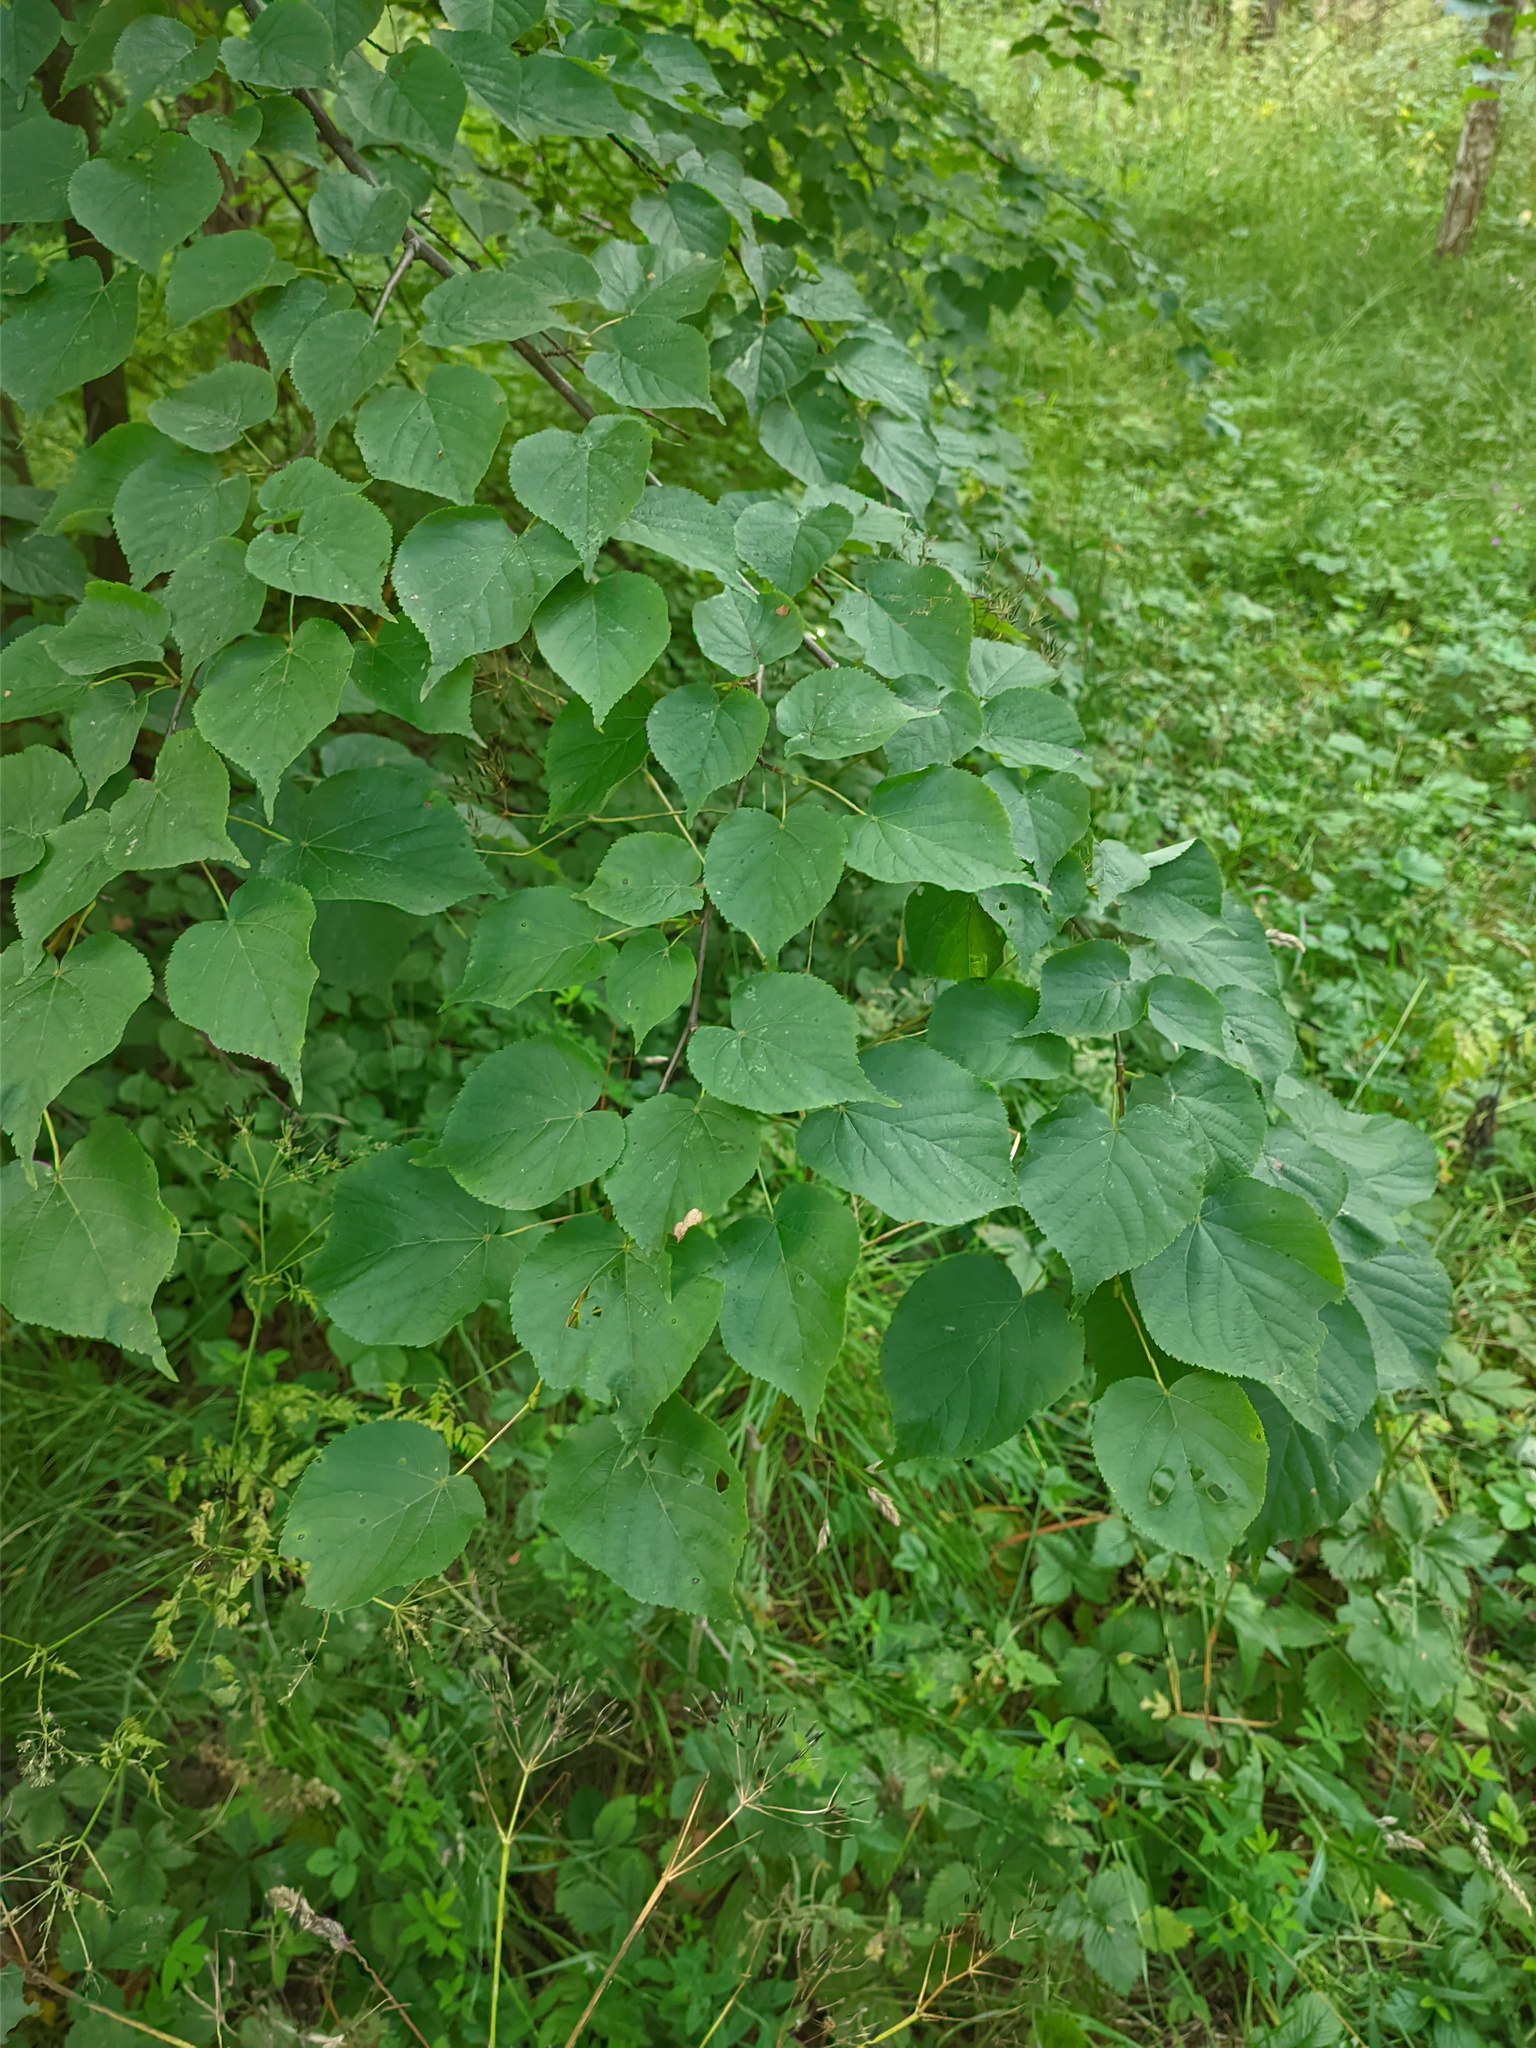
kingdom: Plantae
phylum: Tracheophyta
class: Magnoliopsida
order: Malvales
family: Malvaceae
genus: Tilia
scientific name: Tilia cordata
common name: Small-leaved lime
